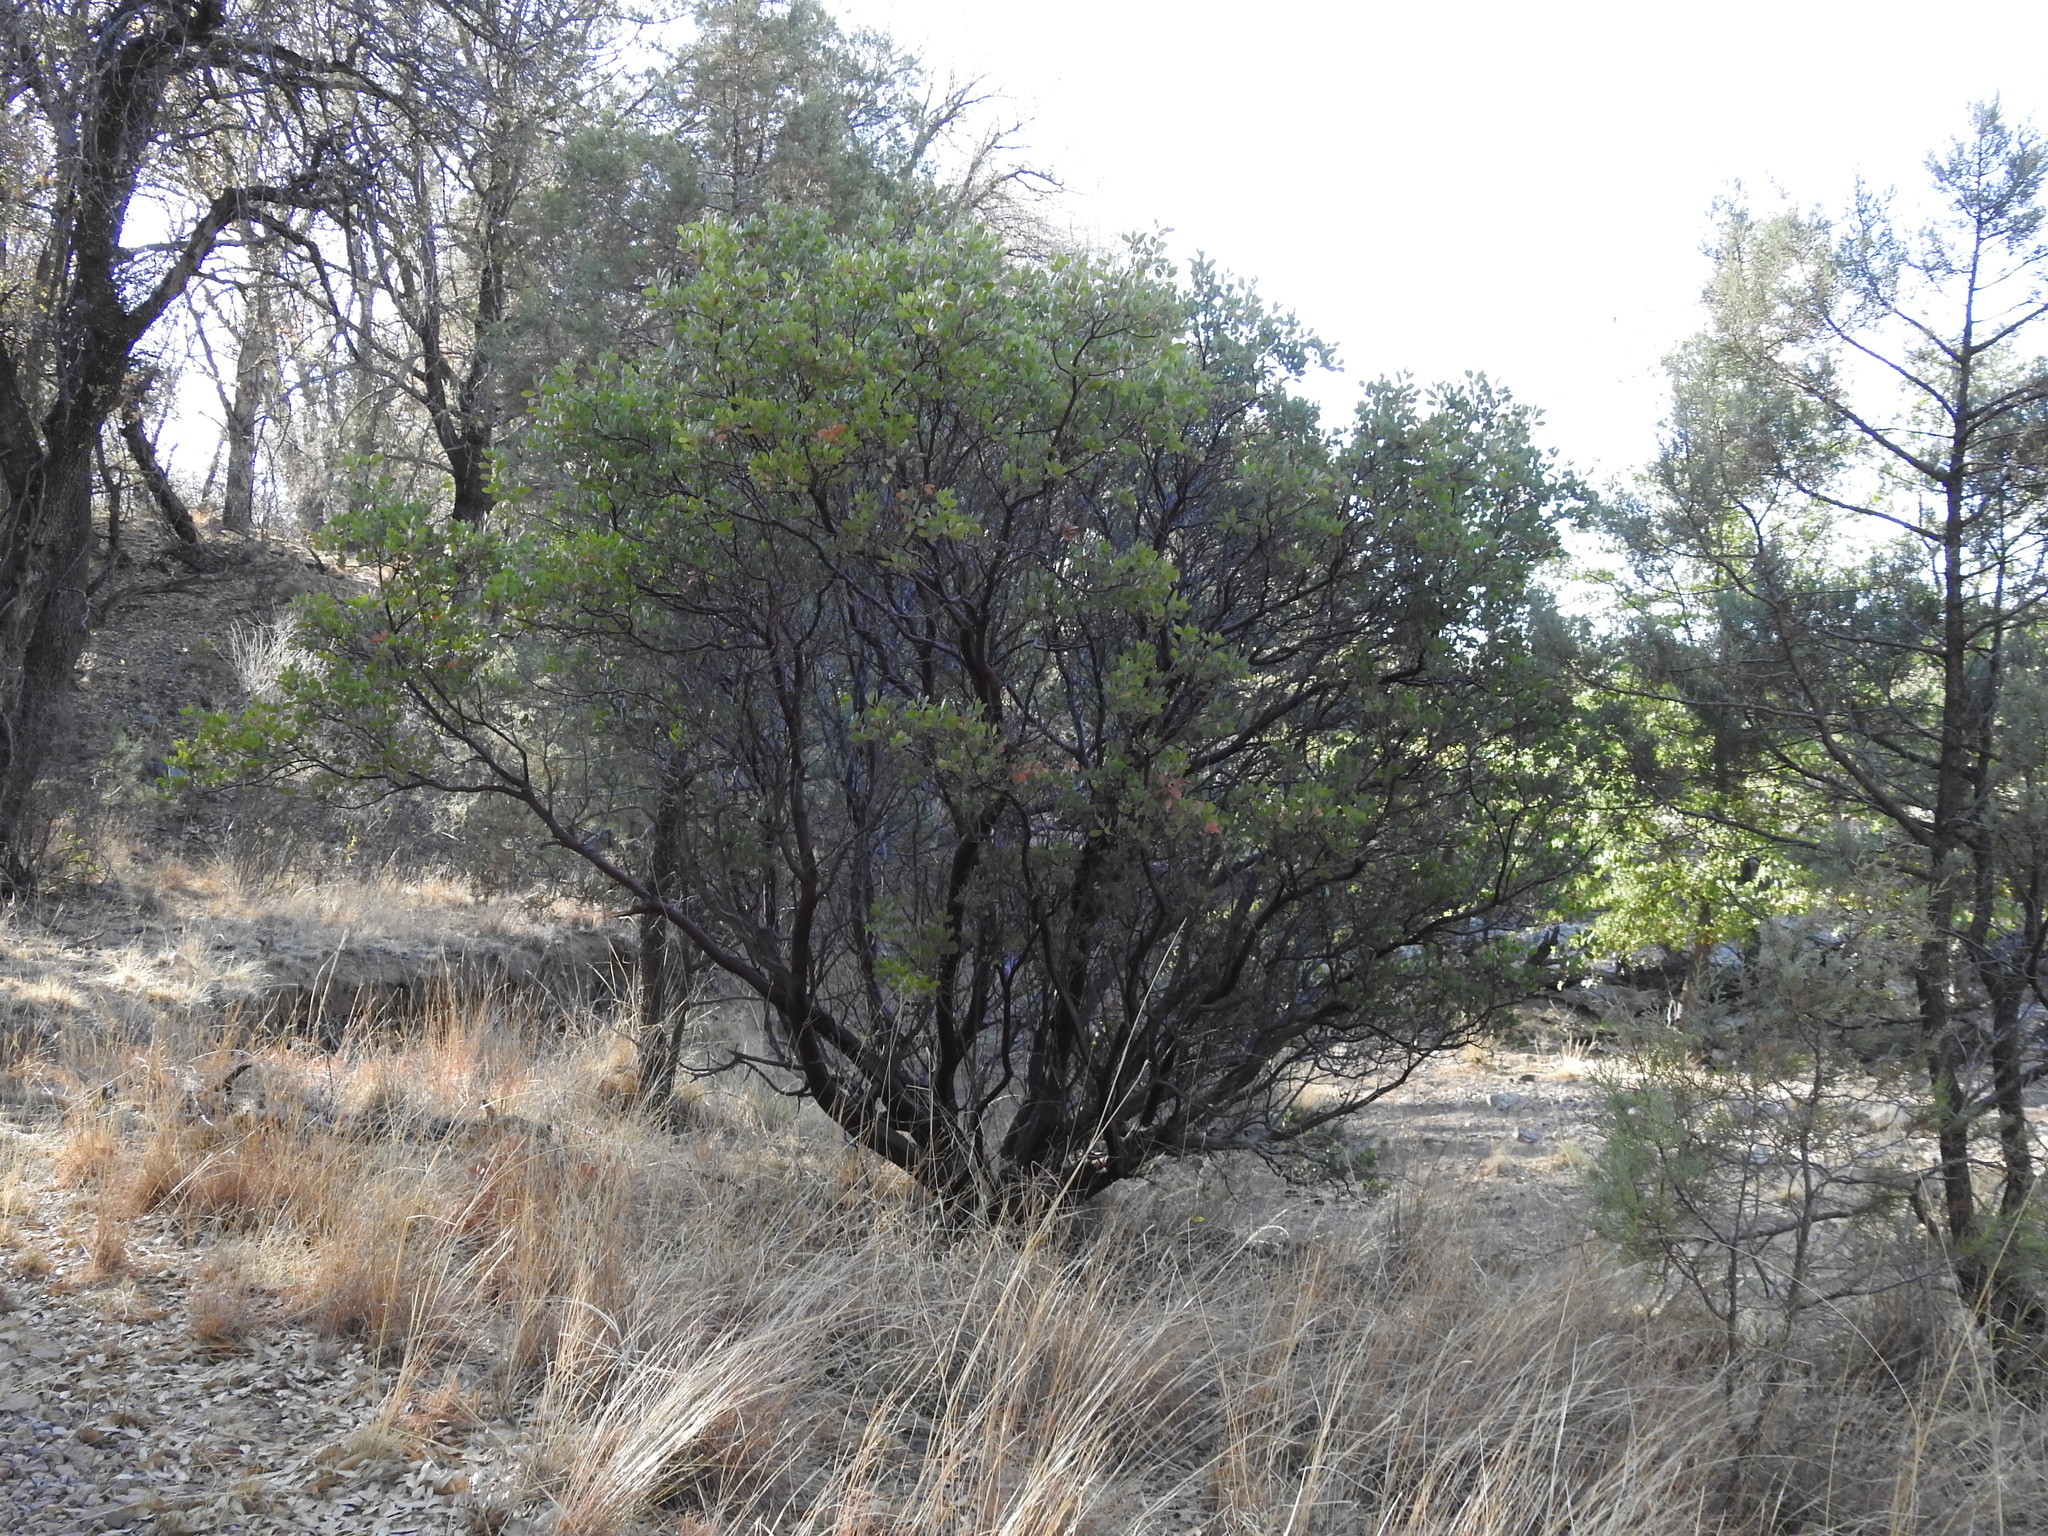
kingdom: Plantae
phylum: Tracheophyta
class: Magnoliopsida
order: Ericales
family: Ericaceae
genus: Arctostaphylos
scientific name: Arctostaphylos pungens
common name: Mexican manzanita
